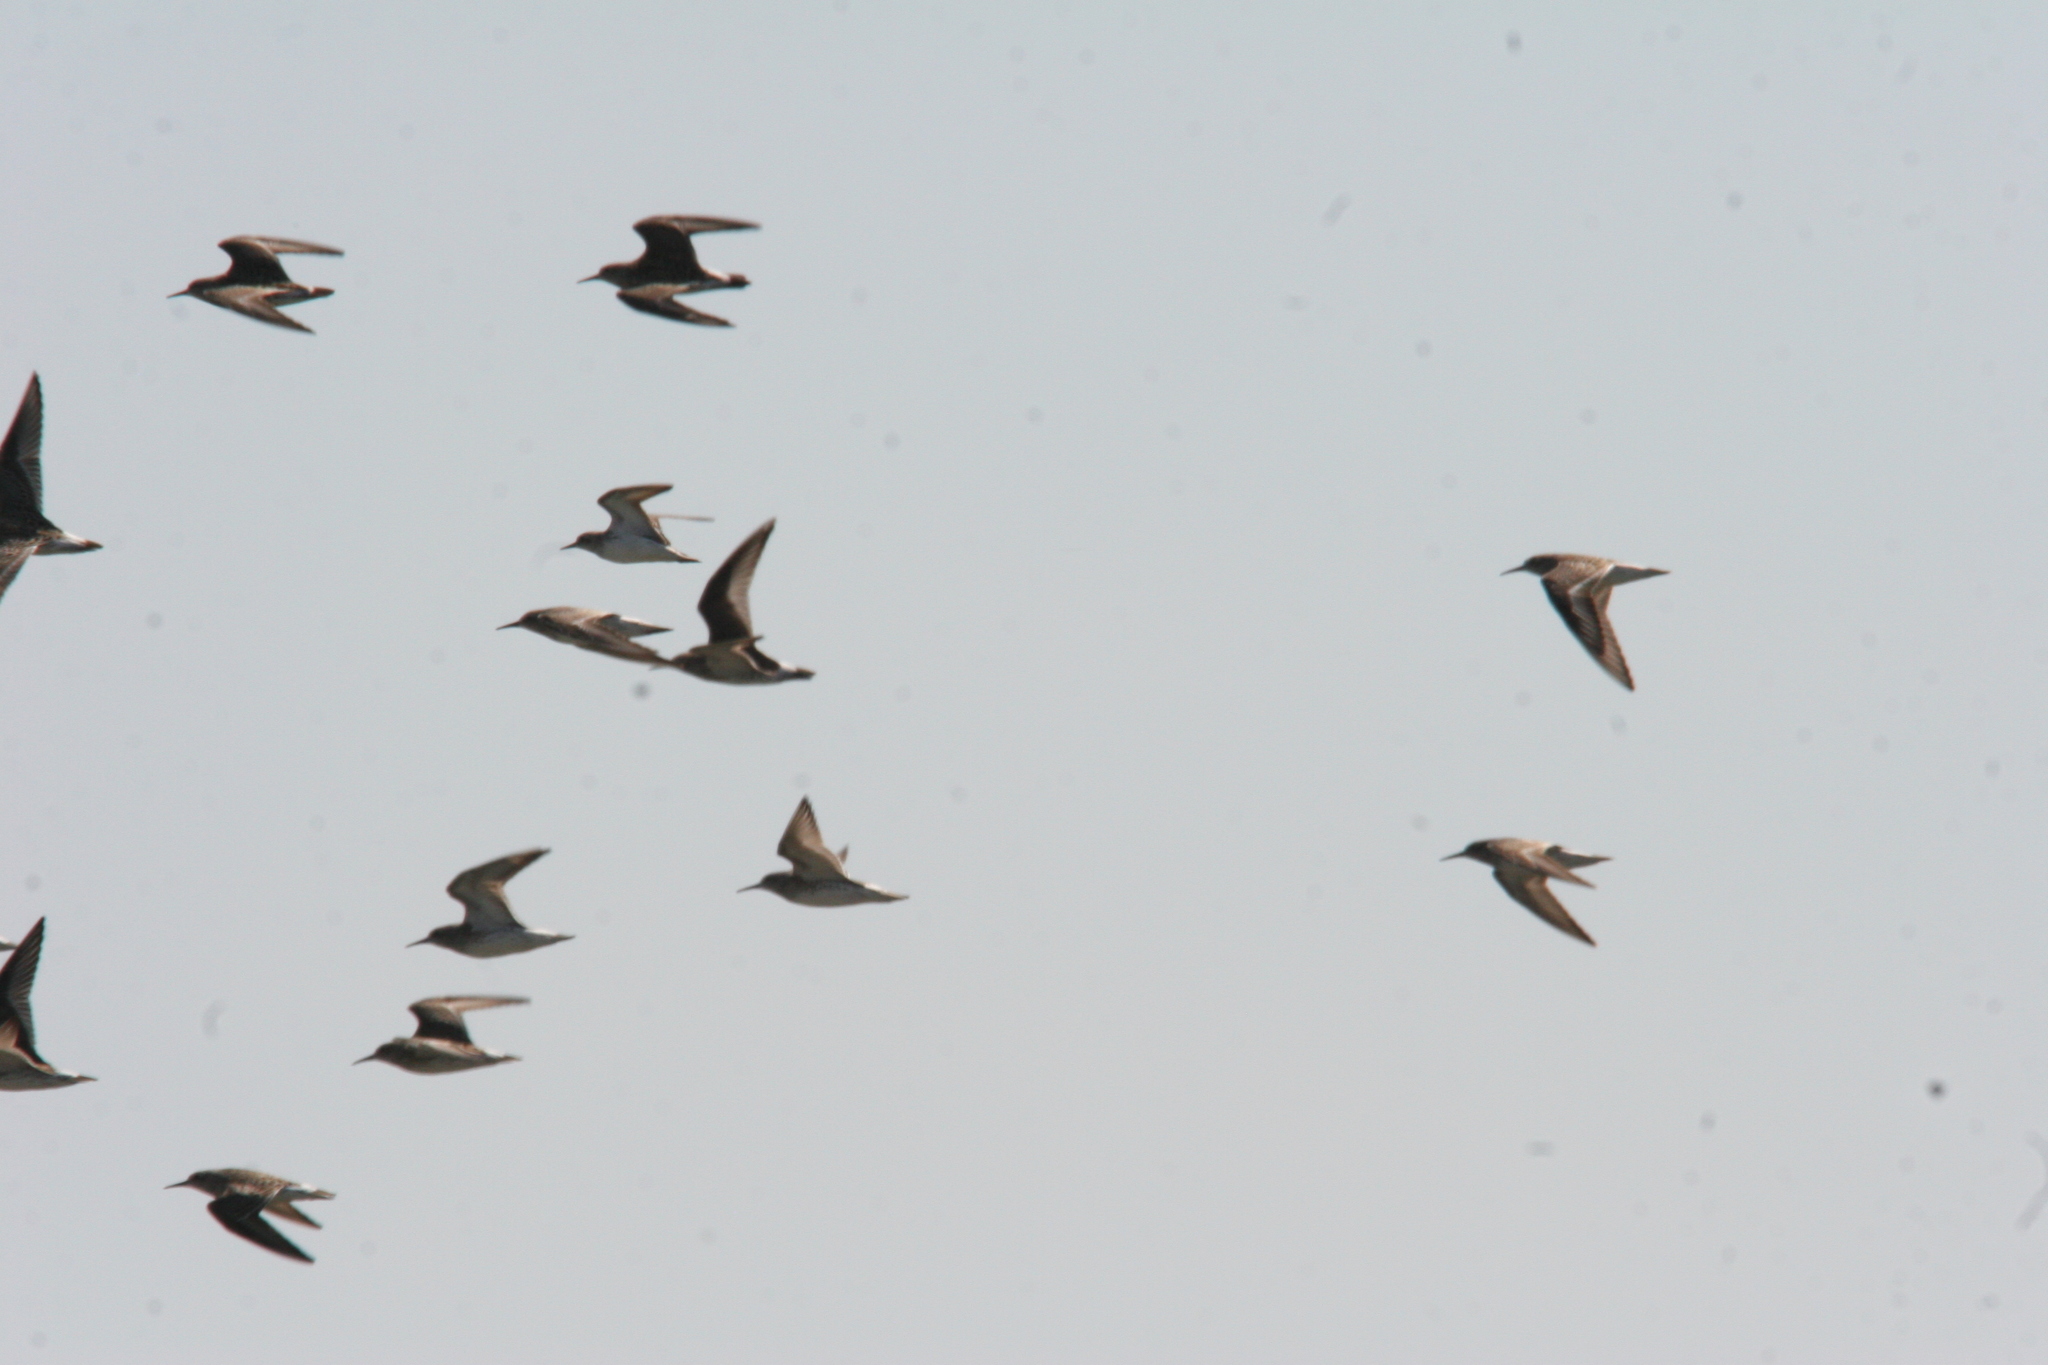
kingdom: Animalia
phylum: Chordata
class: Aves
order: Charadriiformes
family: Scolopacidae
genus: Calidris
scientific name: Calidris fuscicollis
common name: White-rumped sandpiper
